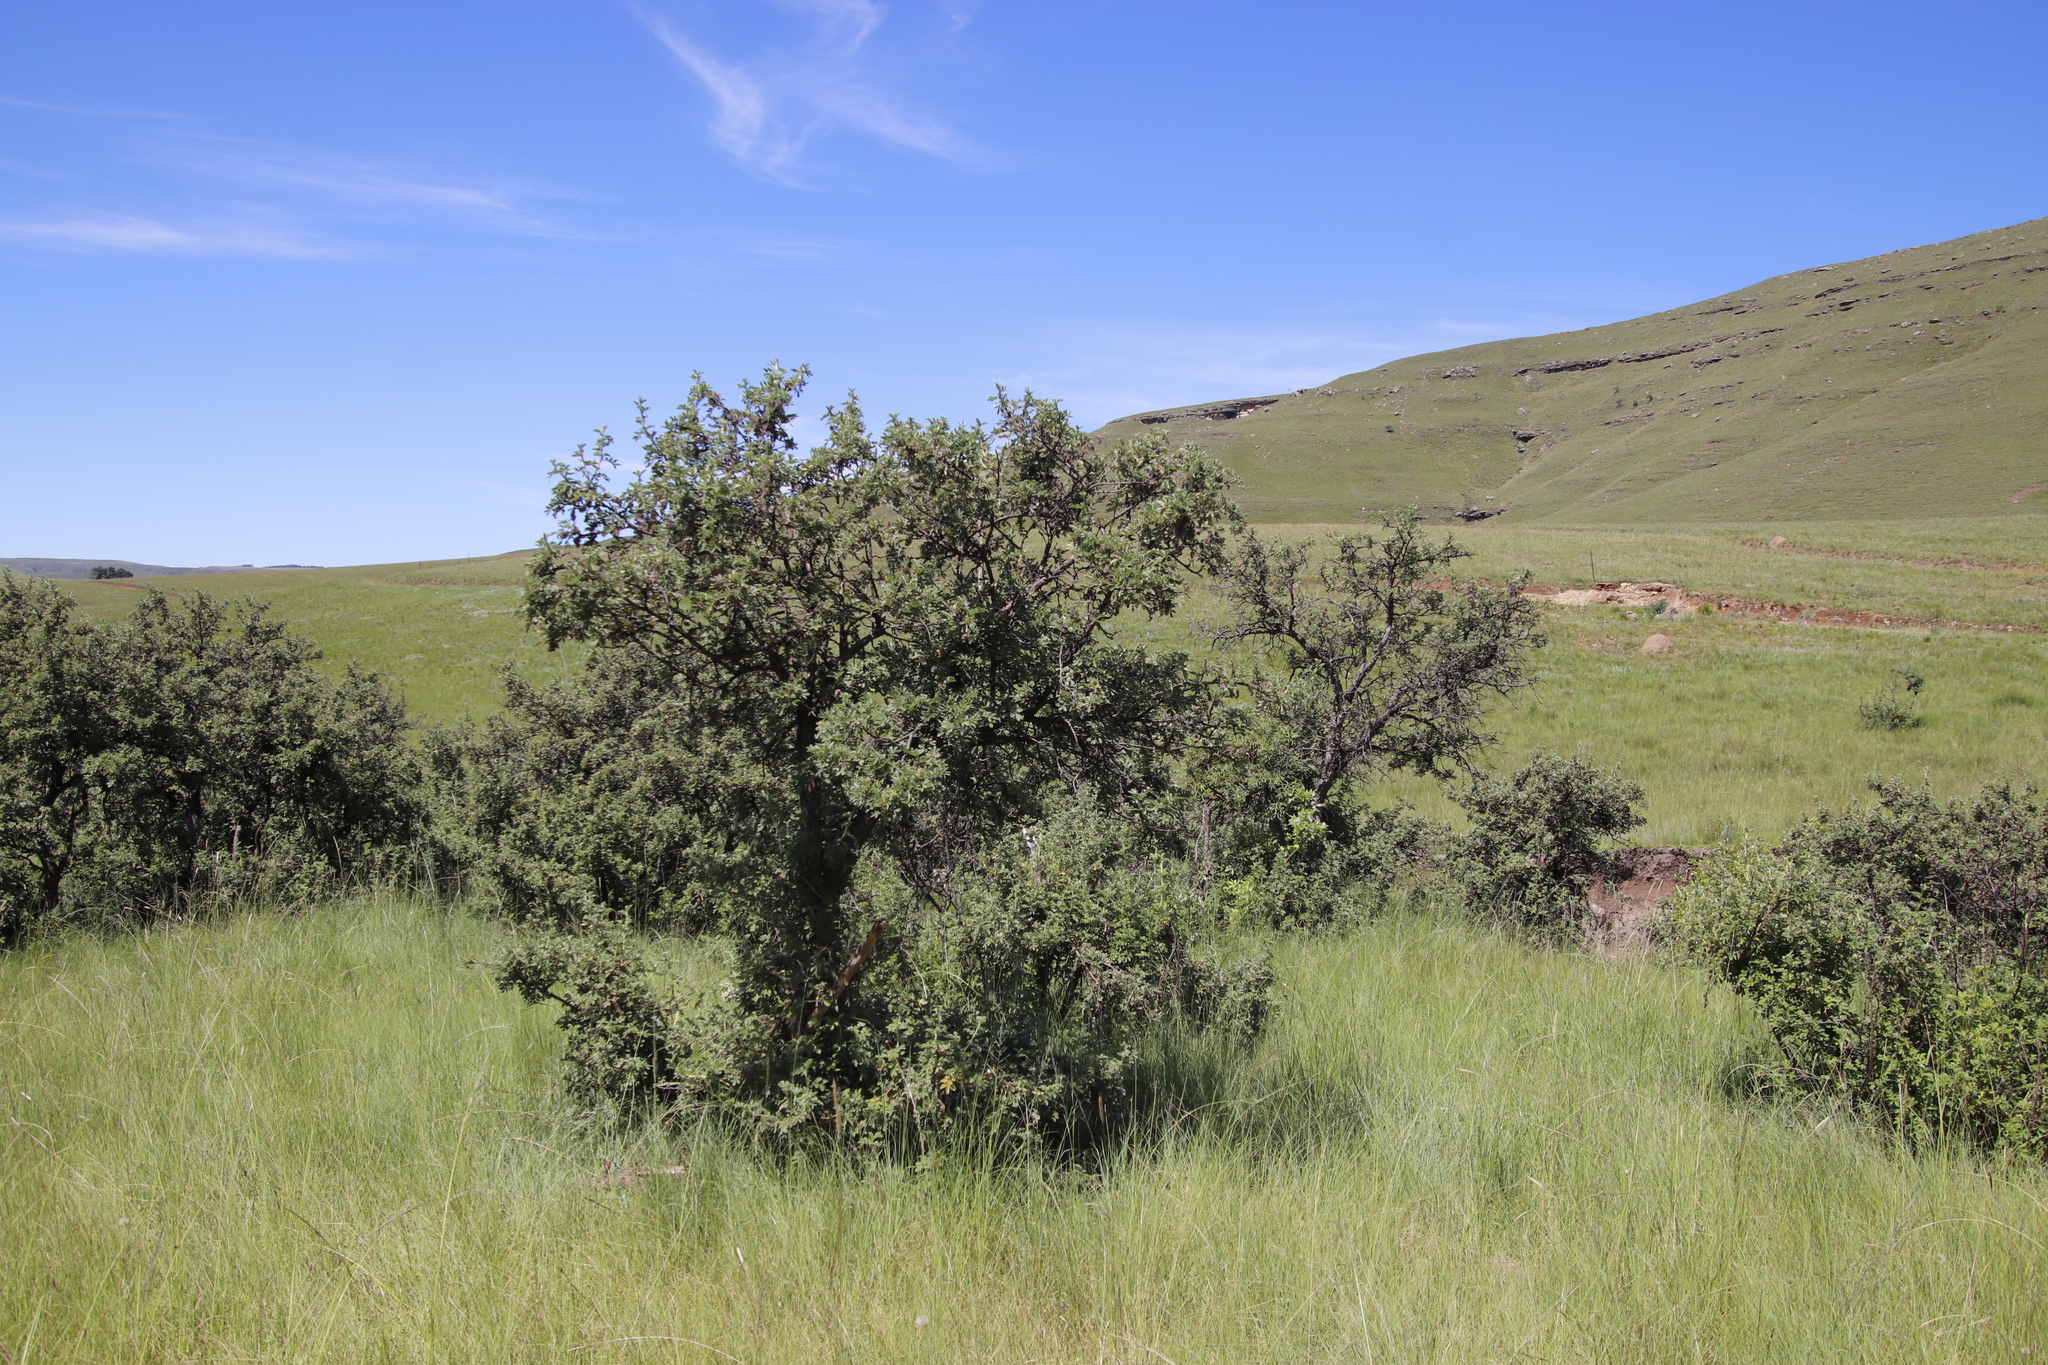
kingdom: Plantae
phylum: Tracheophyta
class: Magnoliopsida
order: Rosales
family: Rosaceae
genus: Leucosidea
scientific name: Leucosidea sericea
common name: Oldwood
